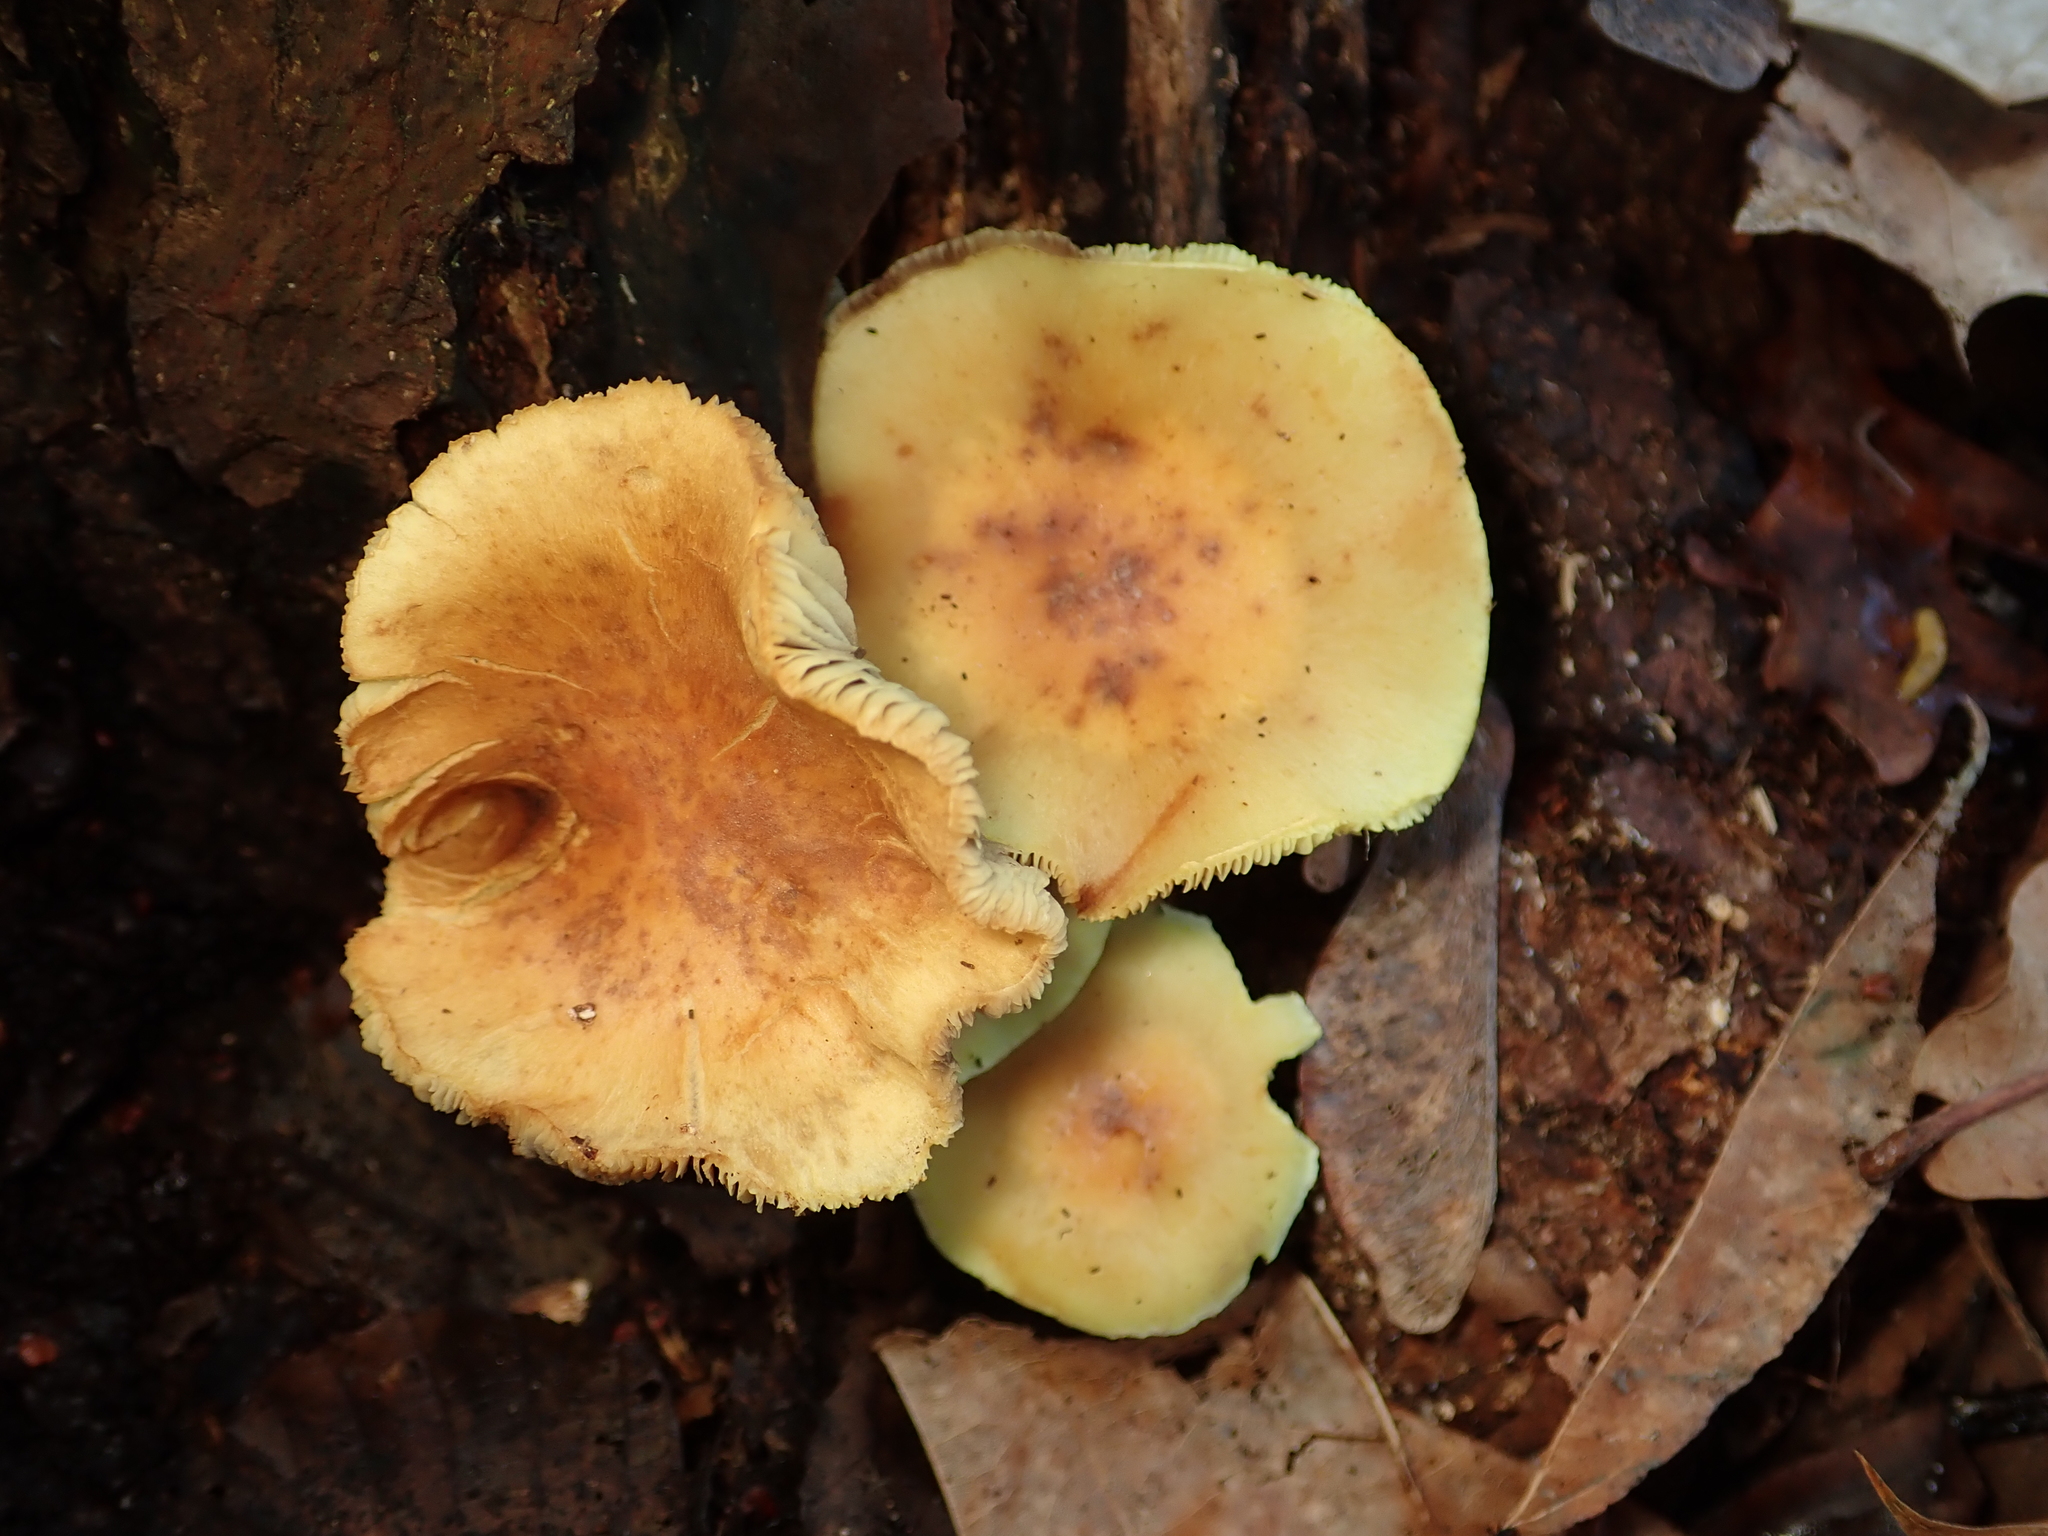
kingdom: Fungi
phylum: Basidiomycota
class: Agaricomycetes
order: Agaricales
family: Strophariaceae
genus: Hypholoma
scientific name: Hypholoma fasciculare
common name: Sulphur tuft
